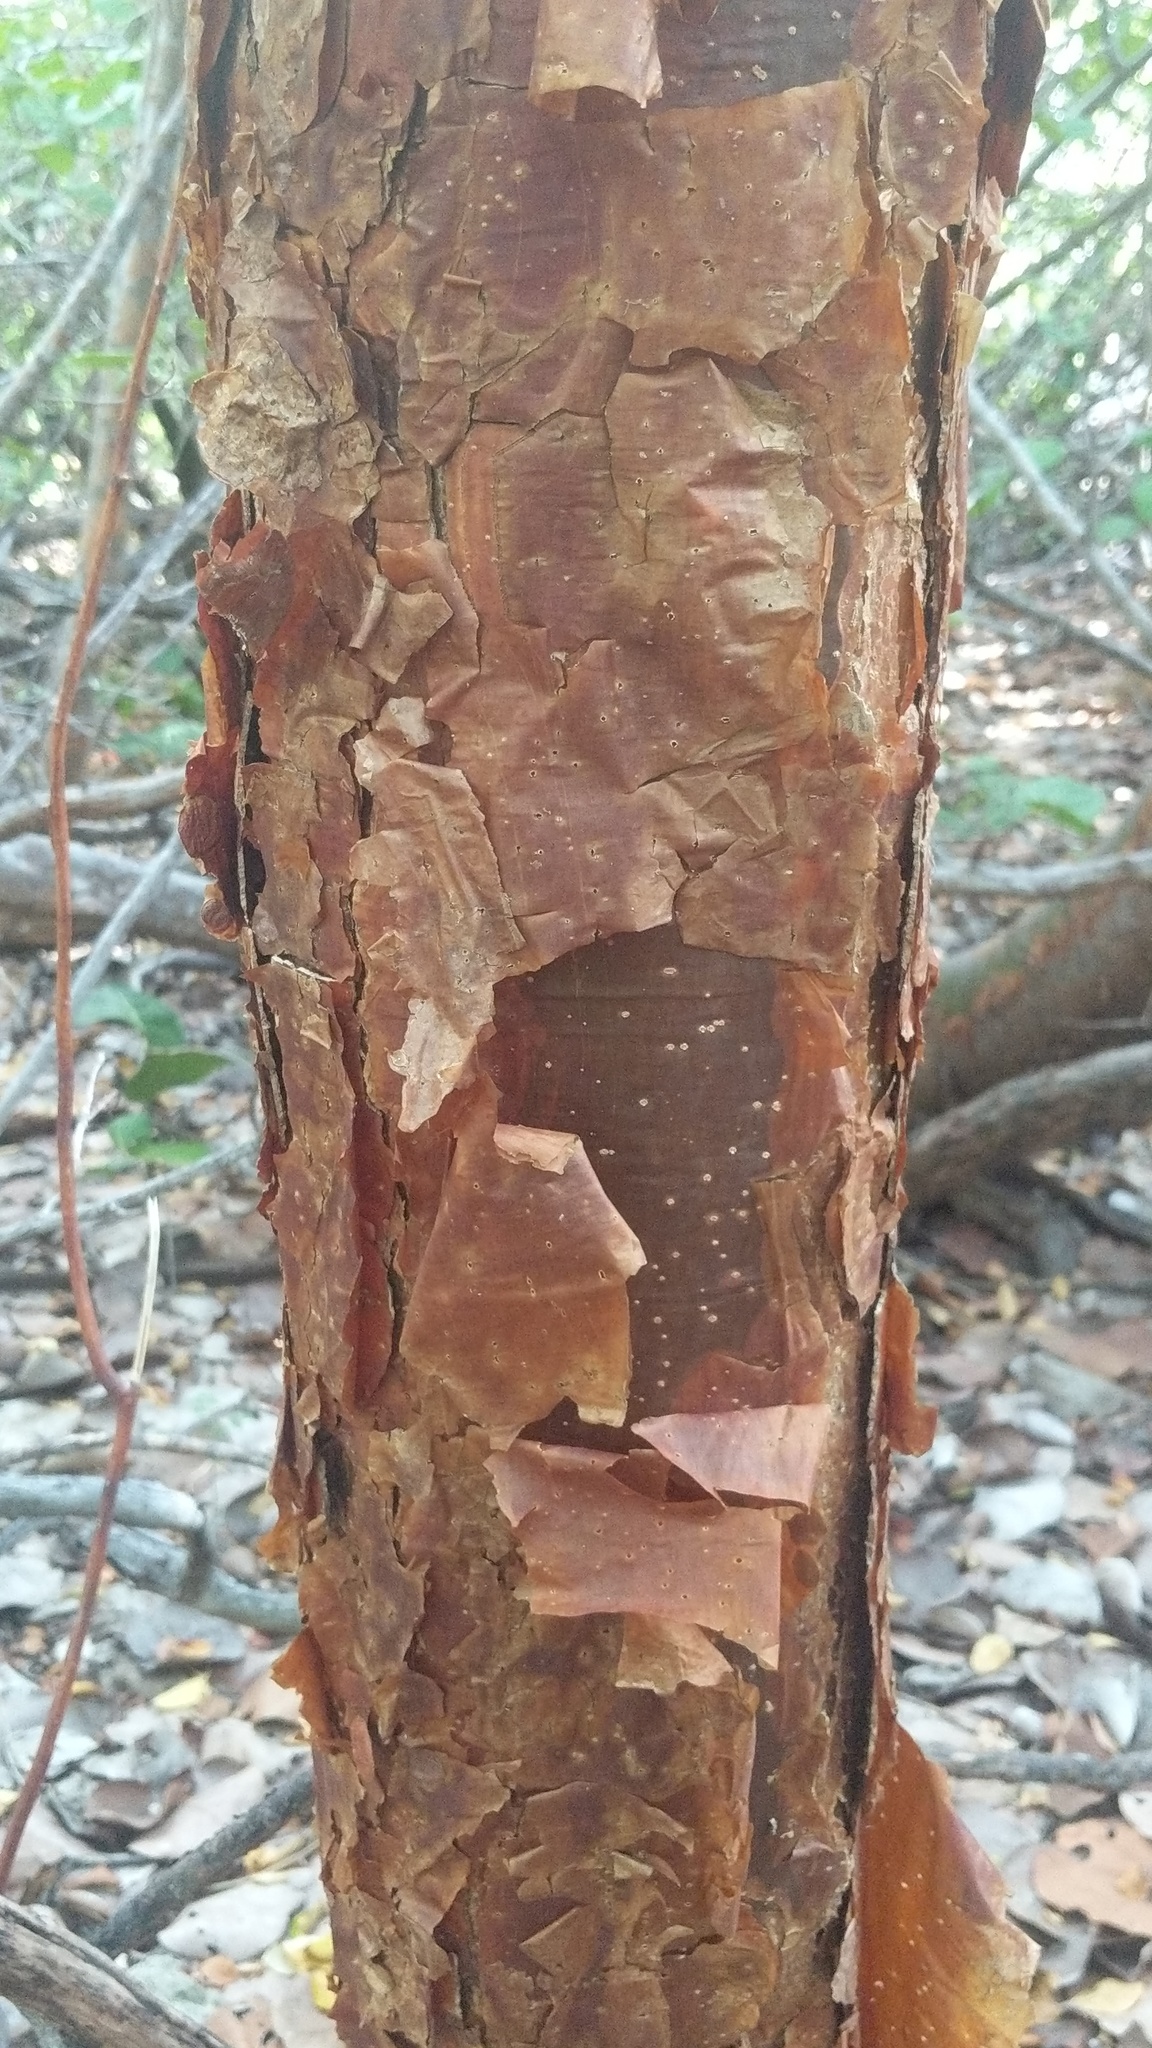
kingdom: Plantae
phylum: Tracheophyta
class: Magnoliopsida
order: Sapindales
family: Burseraceae
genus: Bursera
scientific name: Bursera simaruba
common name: Turpentine tree
